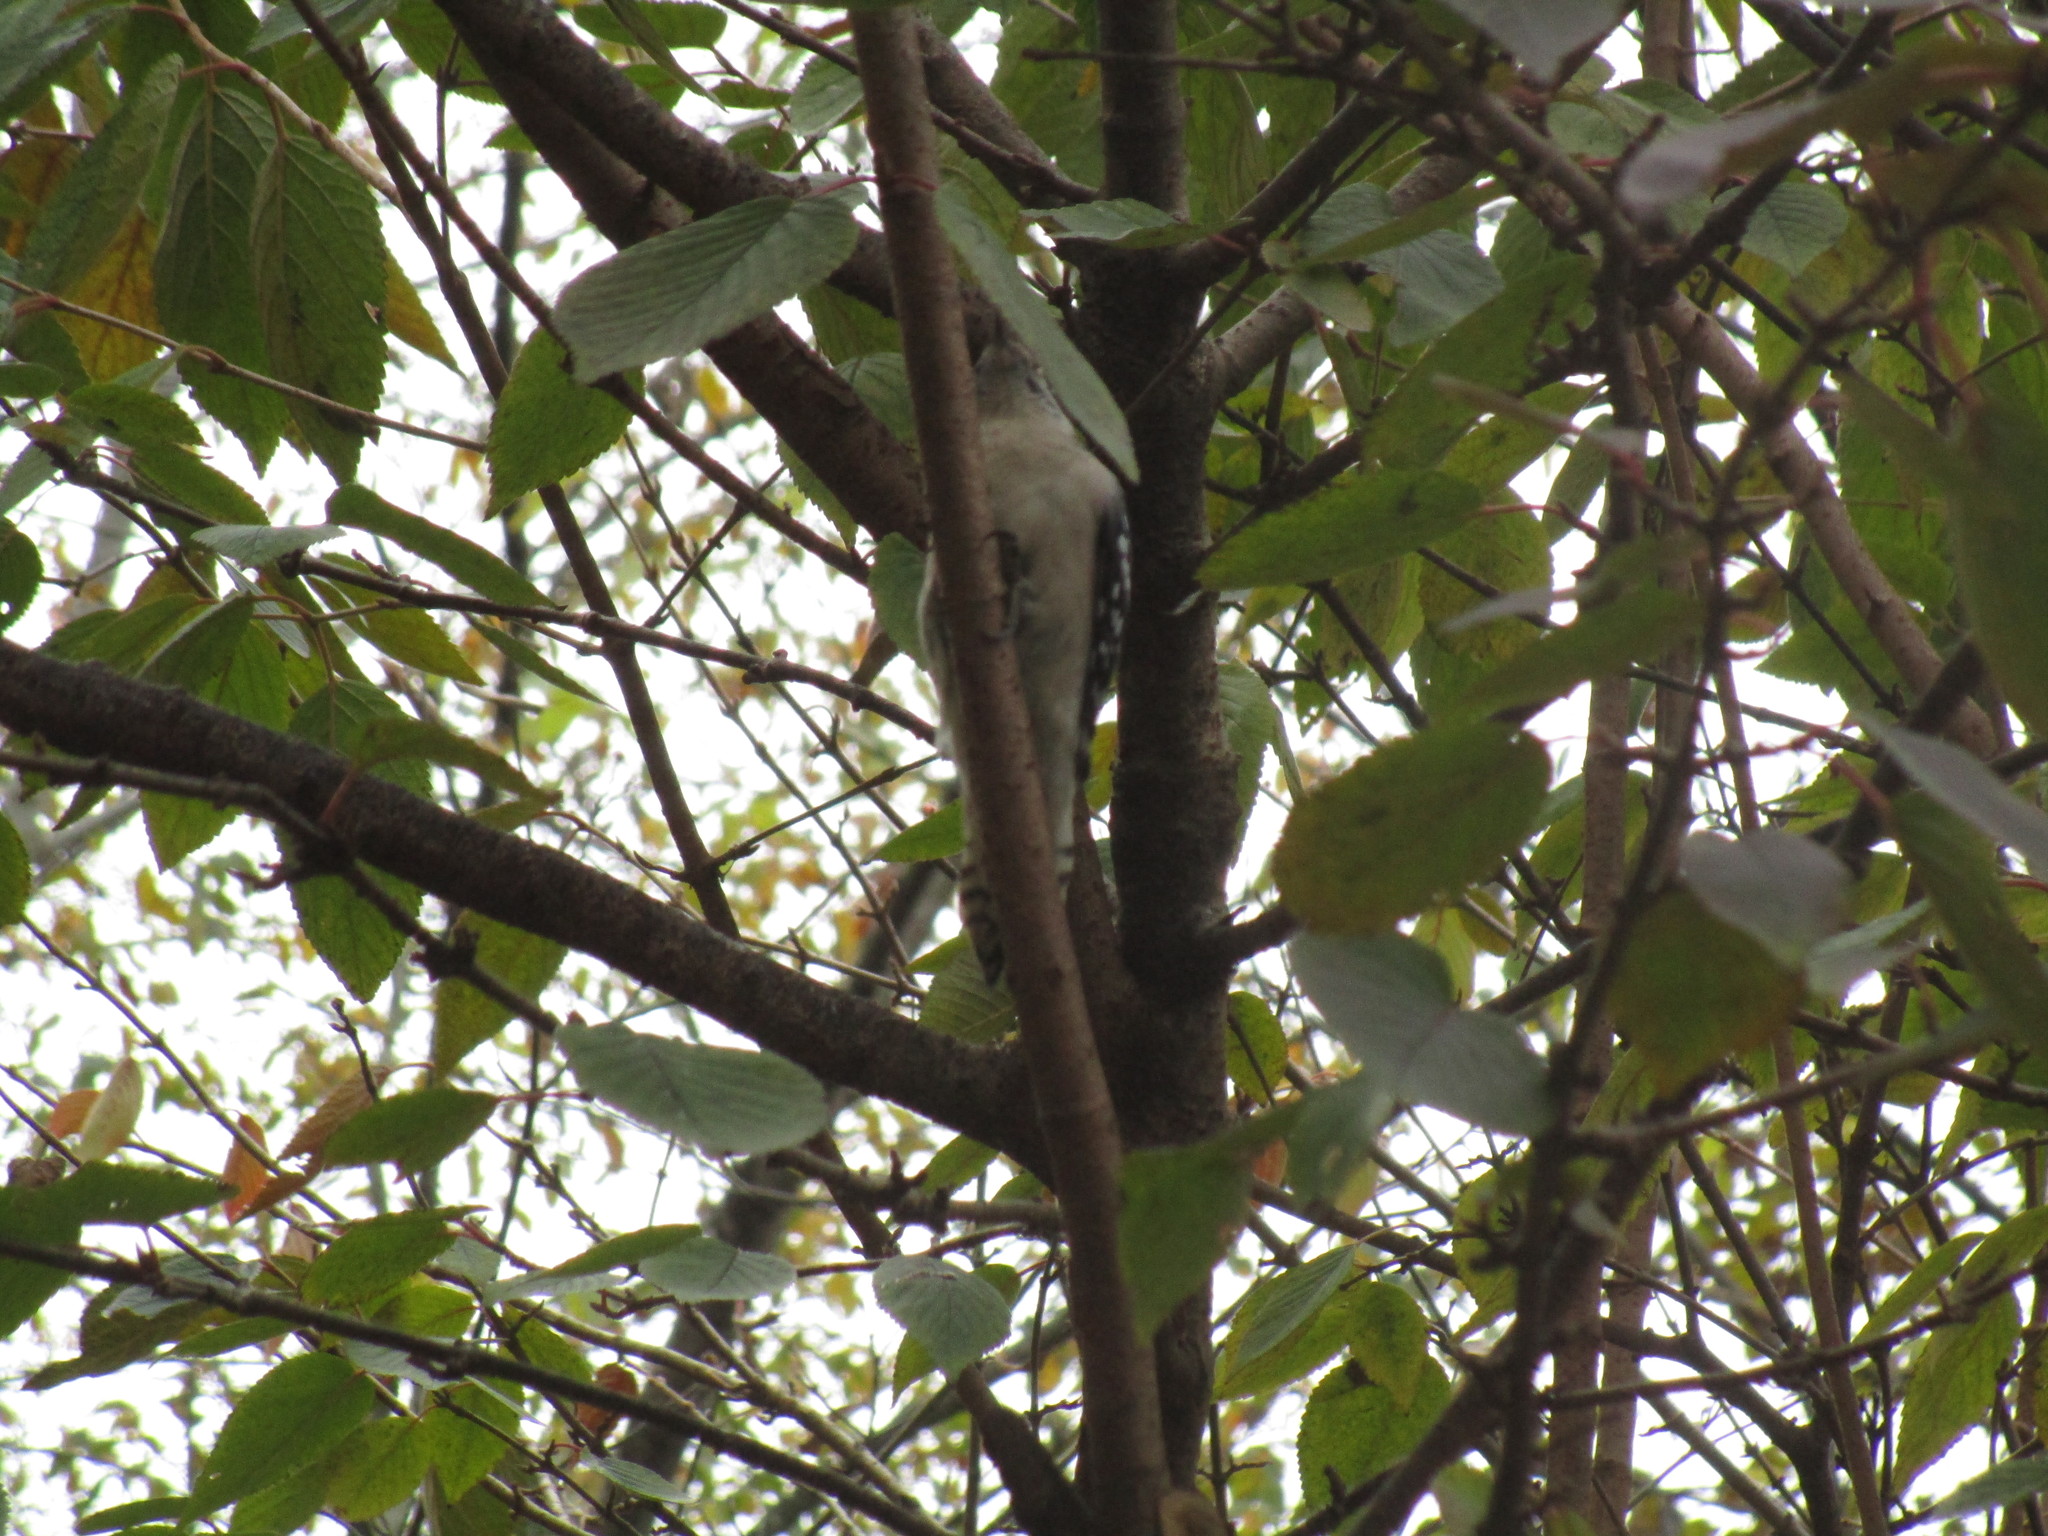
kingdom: Animalia
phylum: Chordata
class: Aves
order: Piciformes
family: Picidae
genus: Dryobates
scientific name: Dryobates pubescens
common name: Downy woodpecker
